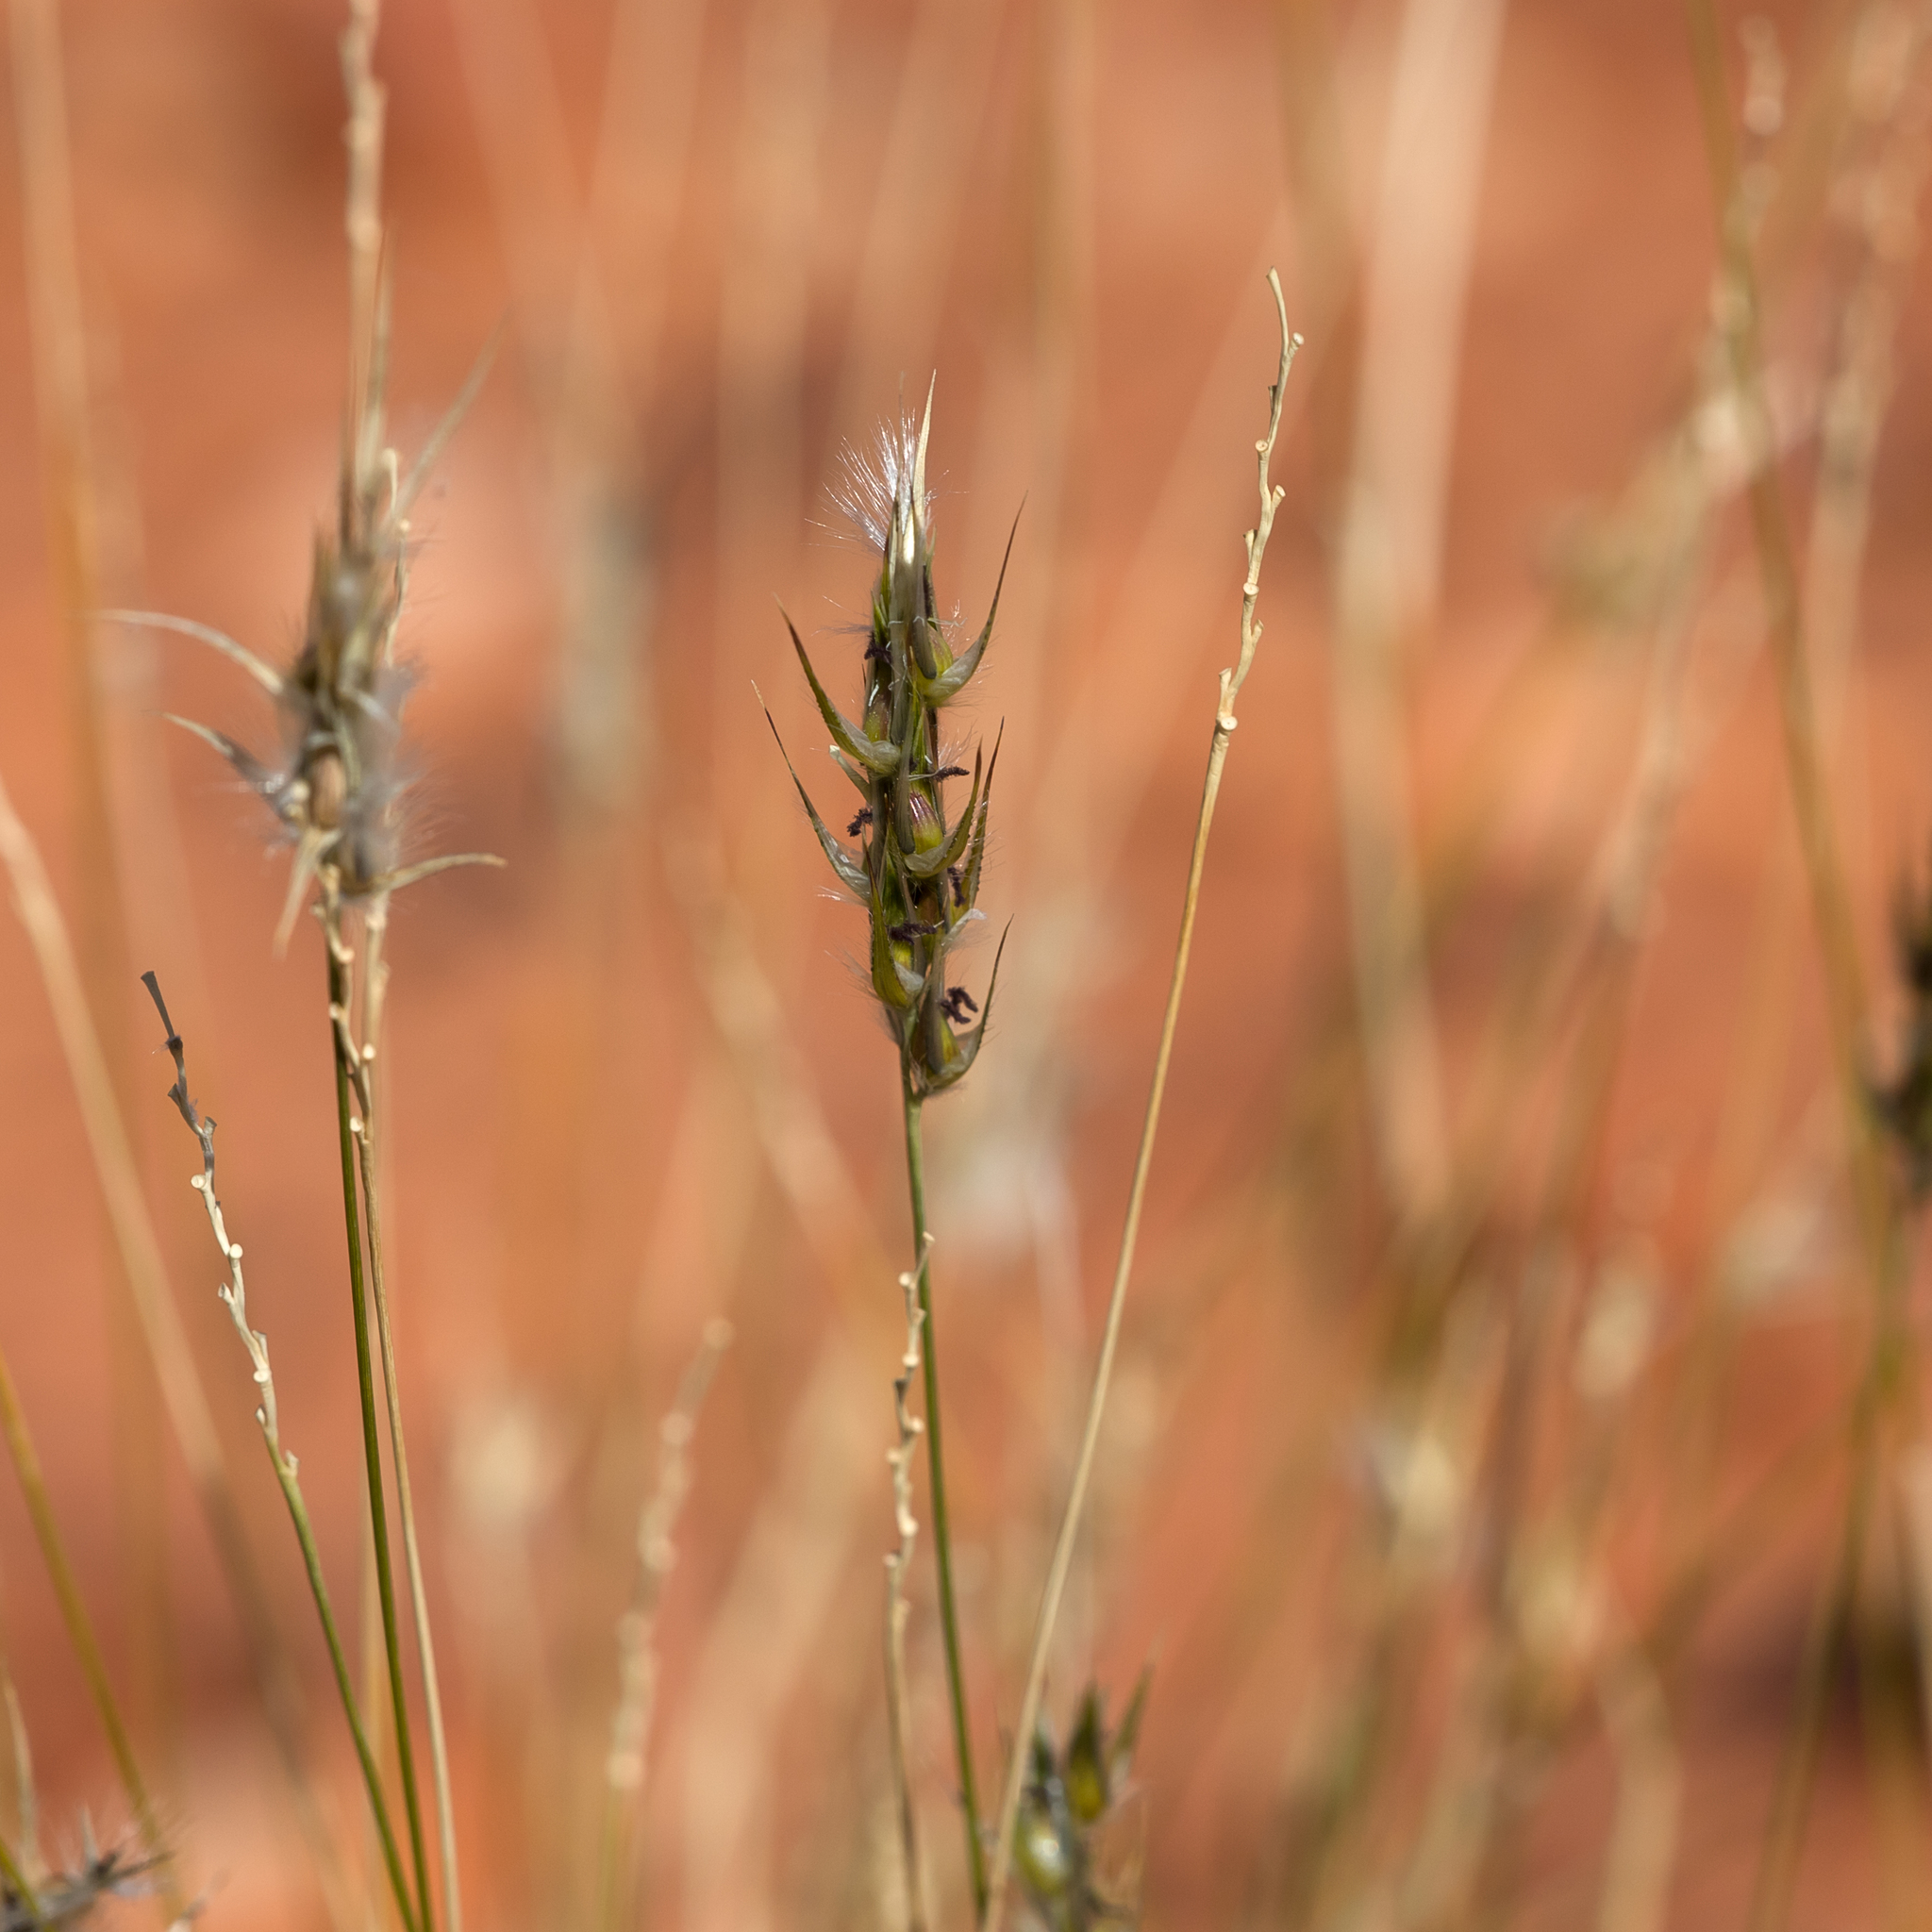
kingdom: Plantae
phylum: Tracheophyta
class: Liliopsida
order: Poales
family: Poaceae
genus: Neurachne
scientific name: Neurachne muelleri
